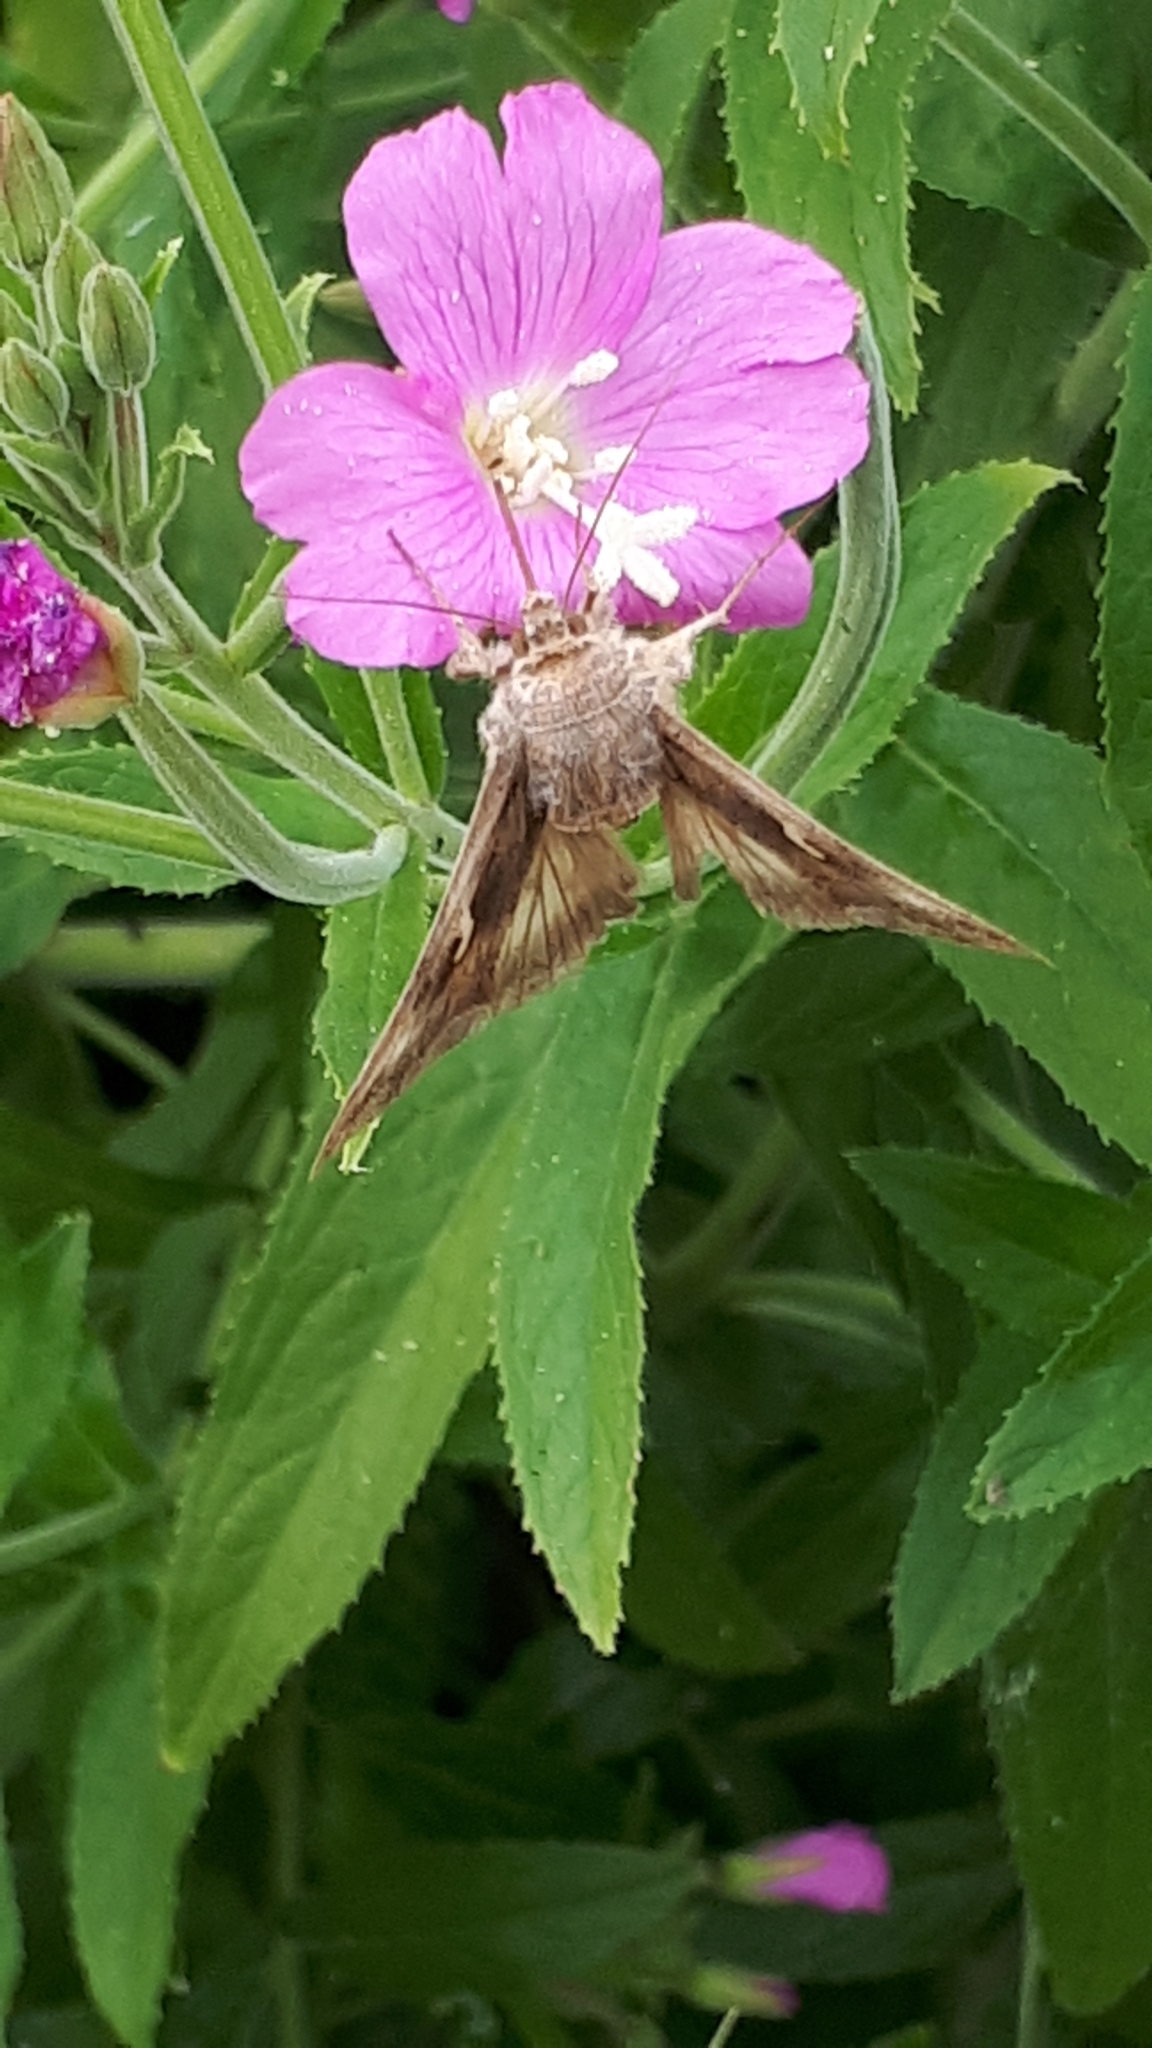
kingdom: Animalia
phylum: Arthropoda
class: Insecta
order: Lepidoptera
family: Noctuidae
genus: Autographa
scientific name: Autographa gamma
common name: Silver y
